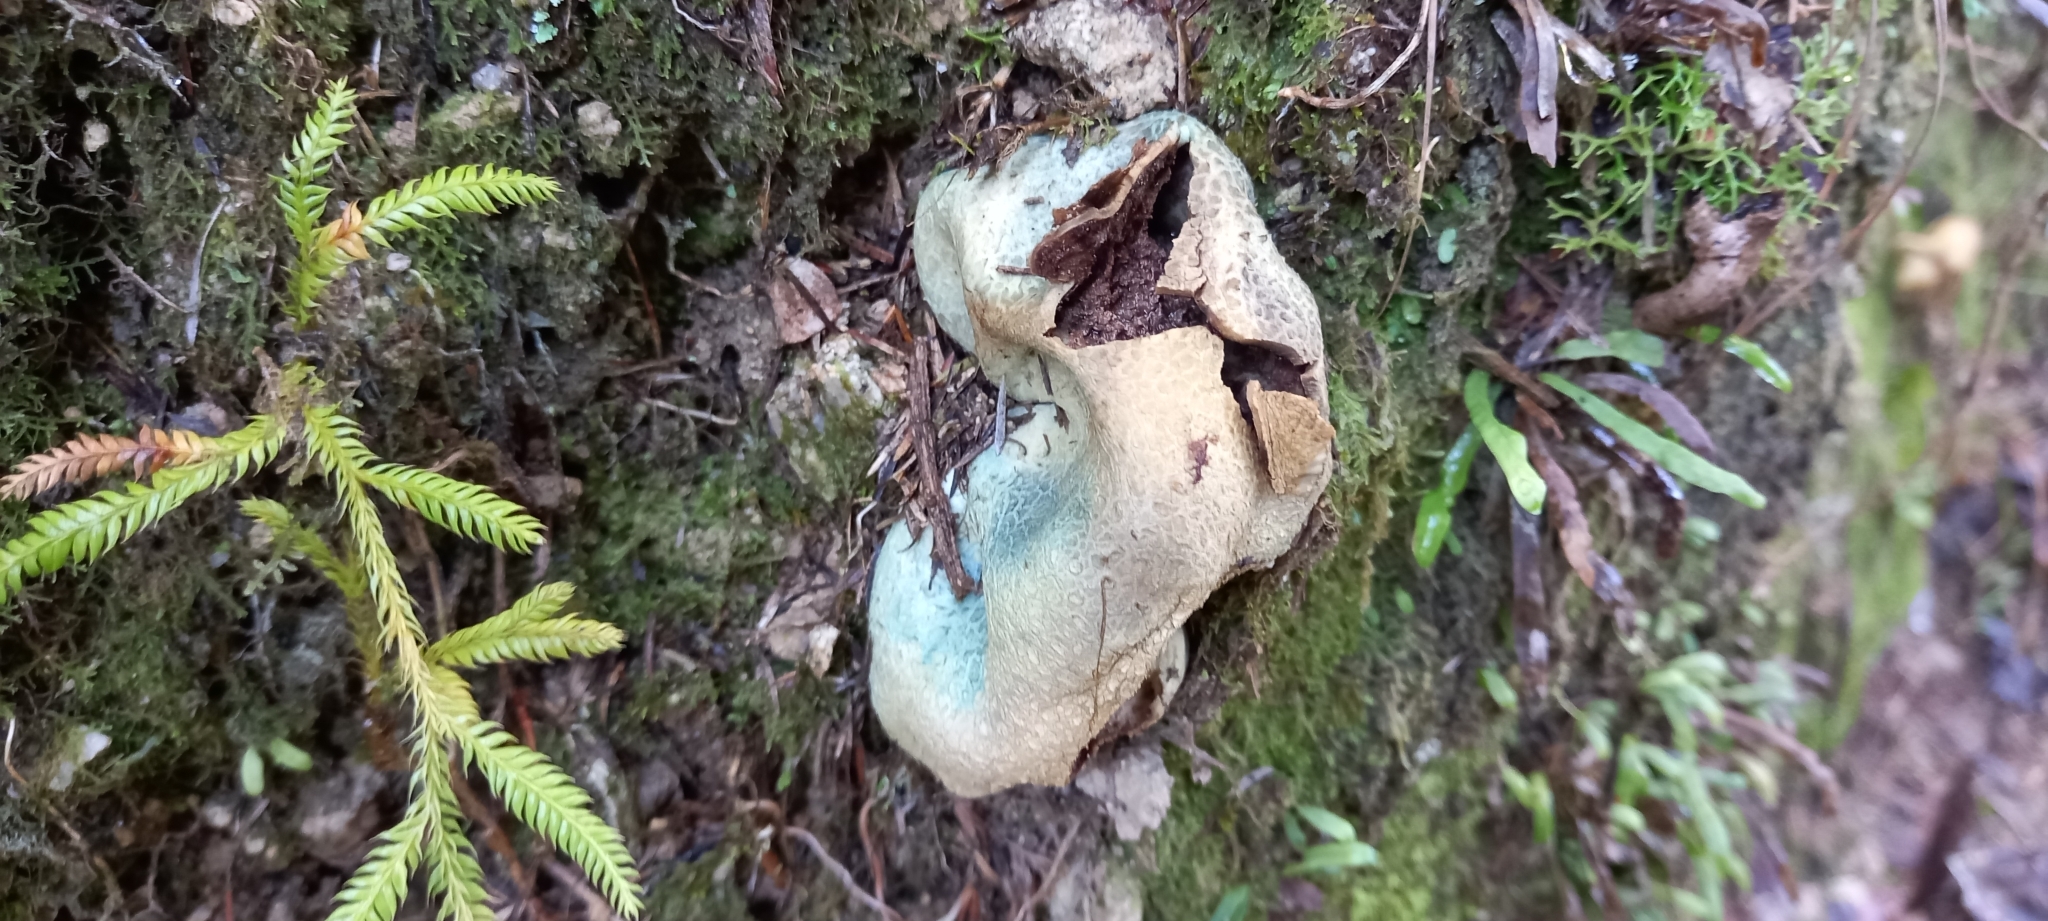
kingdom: Fungi
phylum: Basidiomycota
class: Agaricomycetes
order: Boletales
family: Boletaceae
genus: Leccinum
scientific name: Leccinum pachyderme
